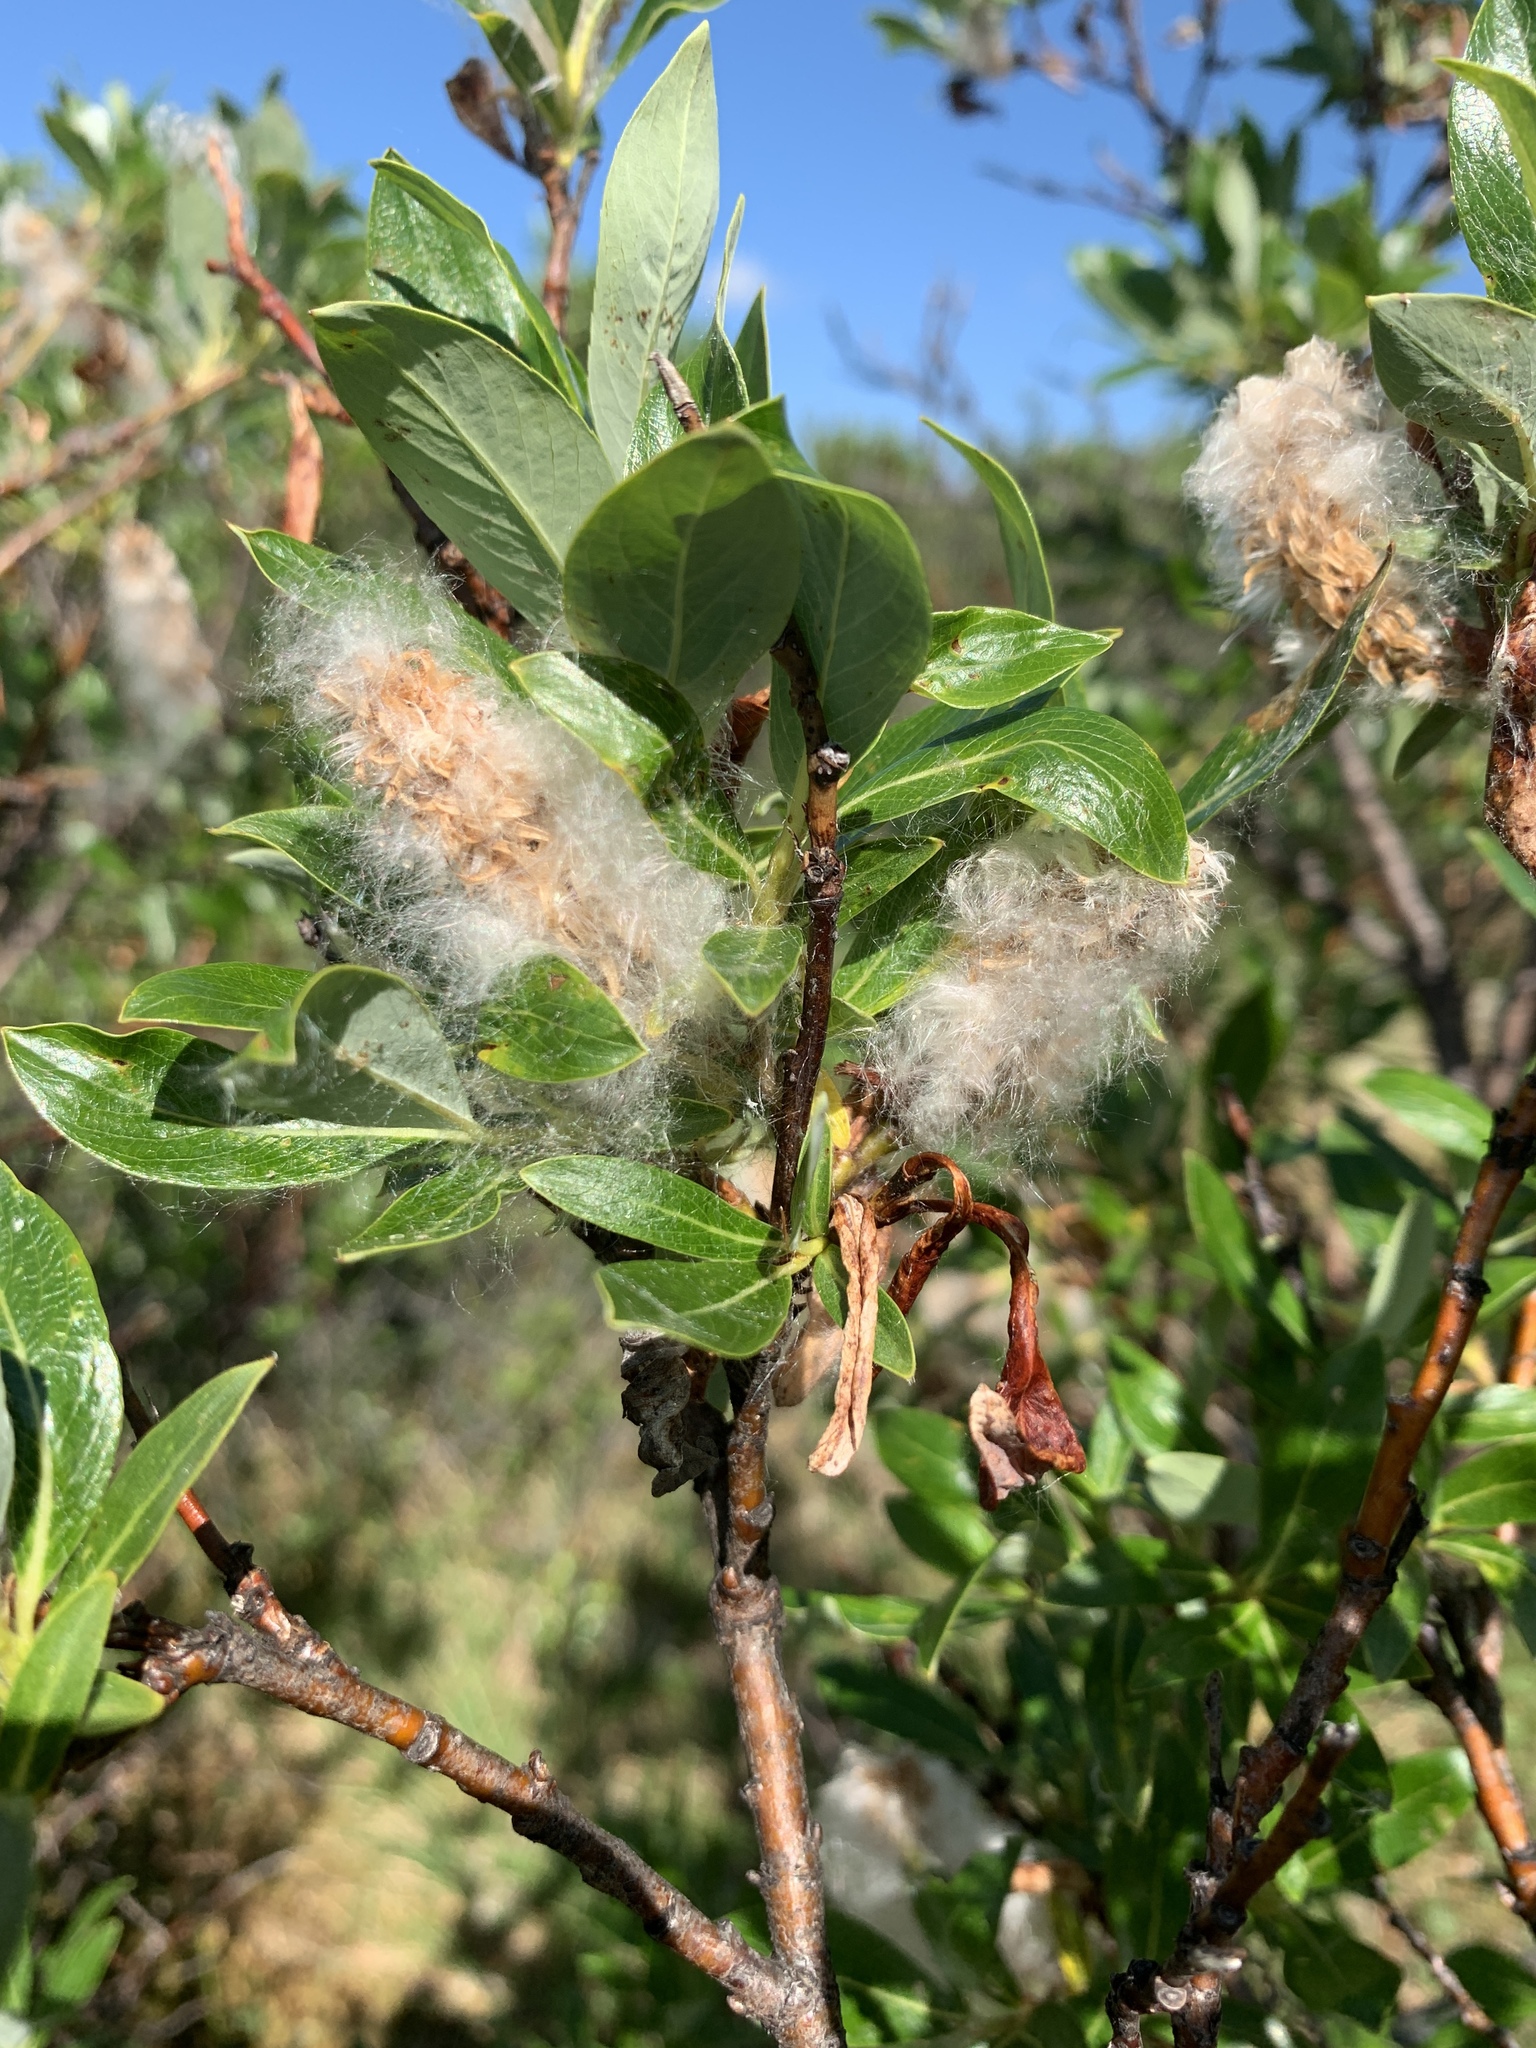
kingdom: Plantae
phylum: Tracheophyta
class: Magnoliopsida
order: Malpighiales
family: Salicaceae
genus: Salix
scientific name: Salix pulchra
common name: Diamond-leaved willow
